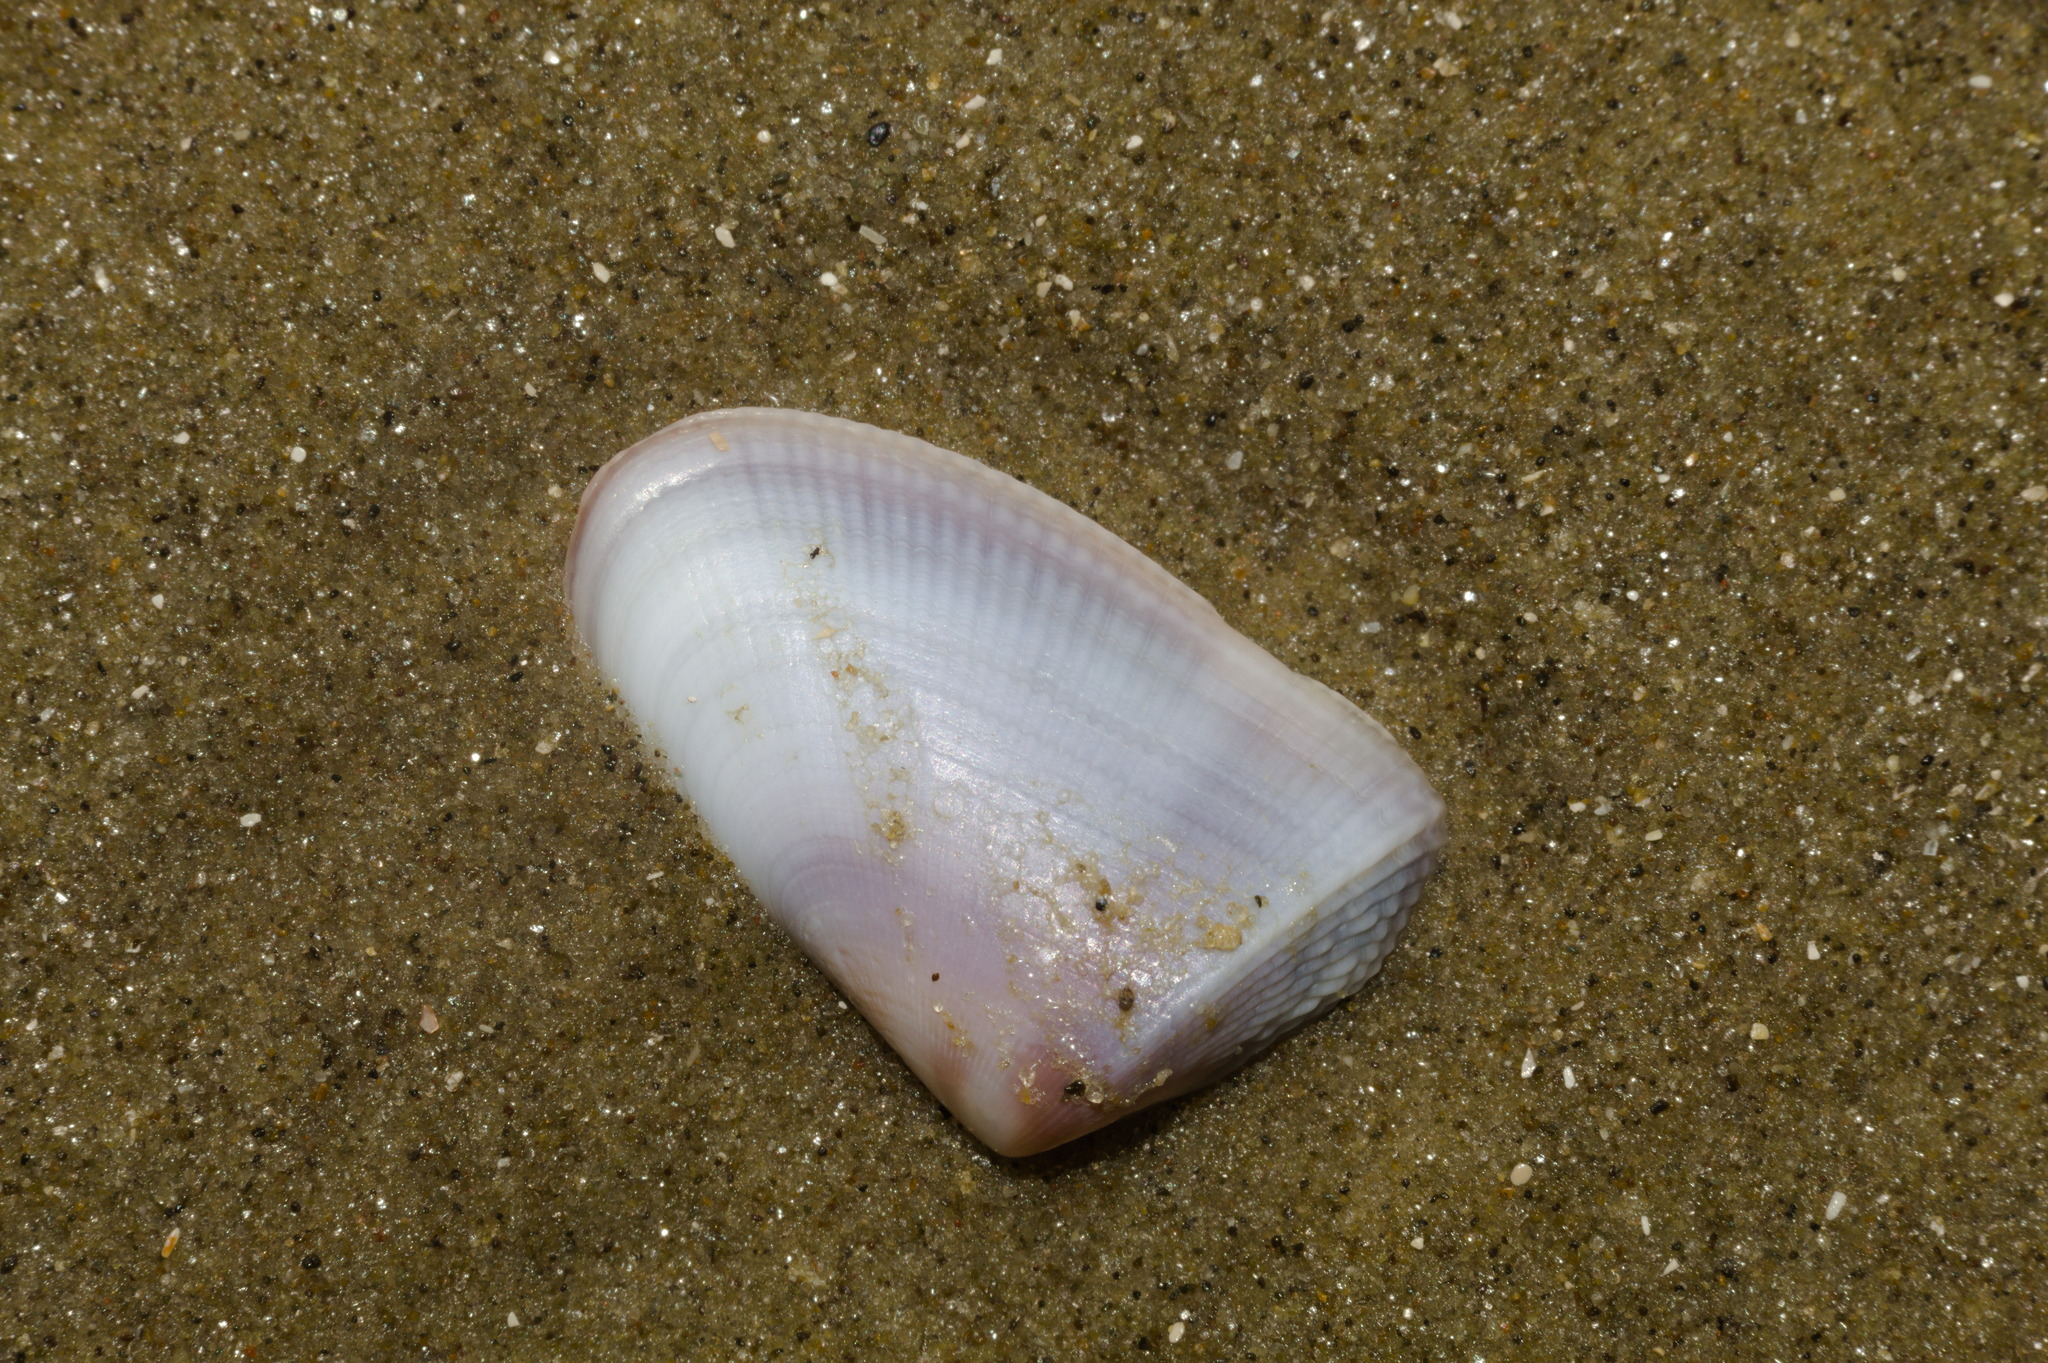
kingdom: Animalia
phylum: Mollusca
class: Bivalvia
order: Cardiida
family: Donacidae
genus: Donax
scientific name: Donax hanleyanus
